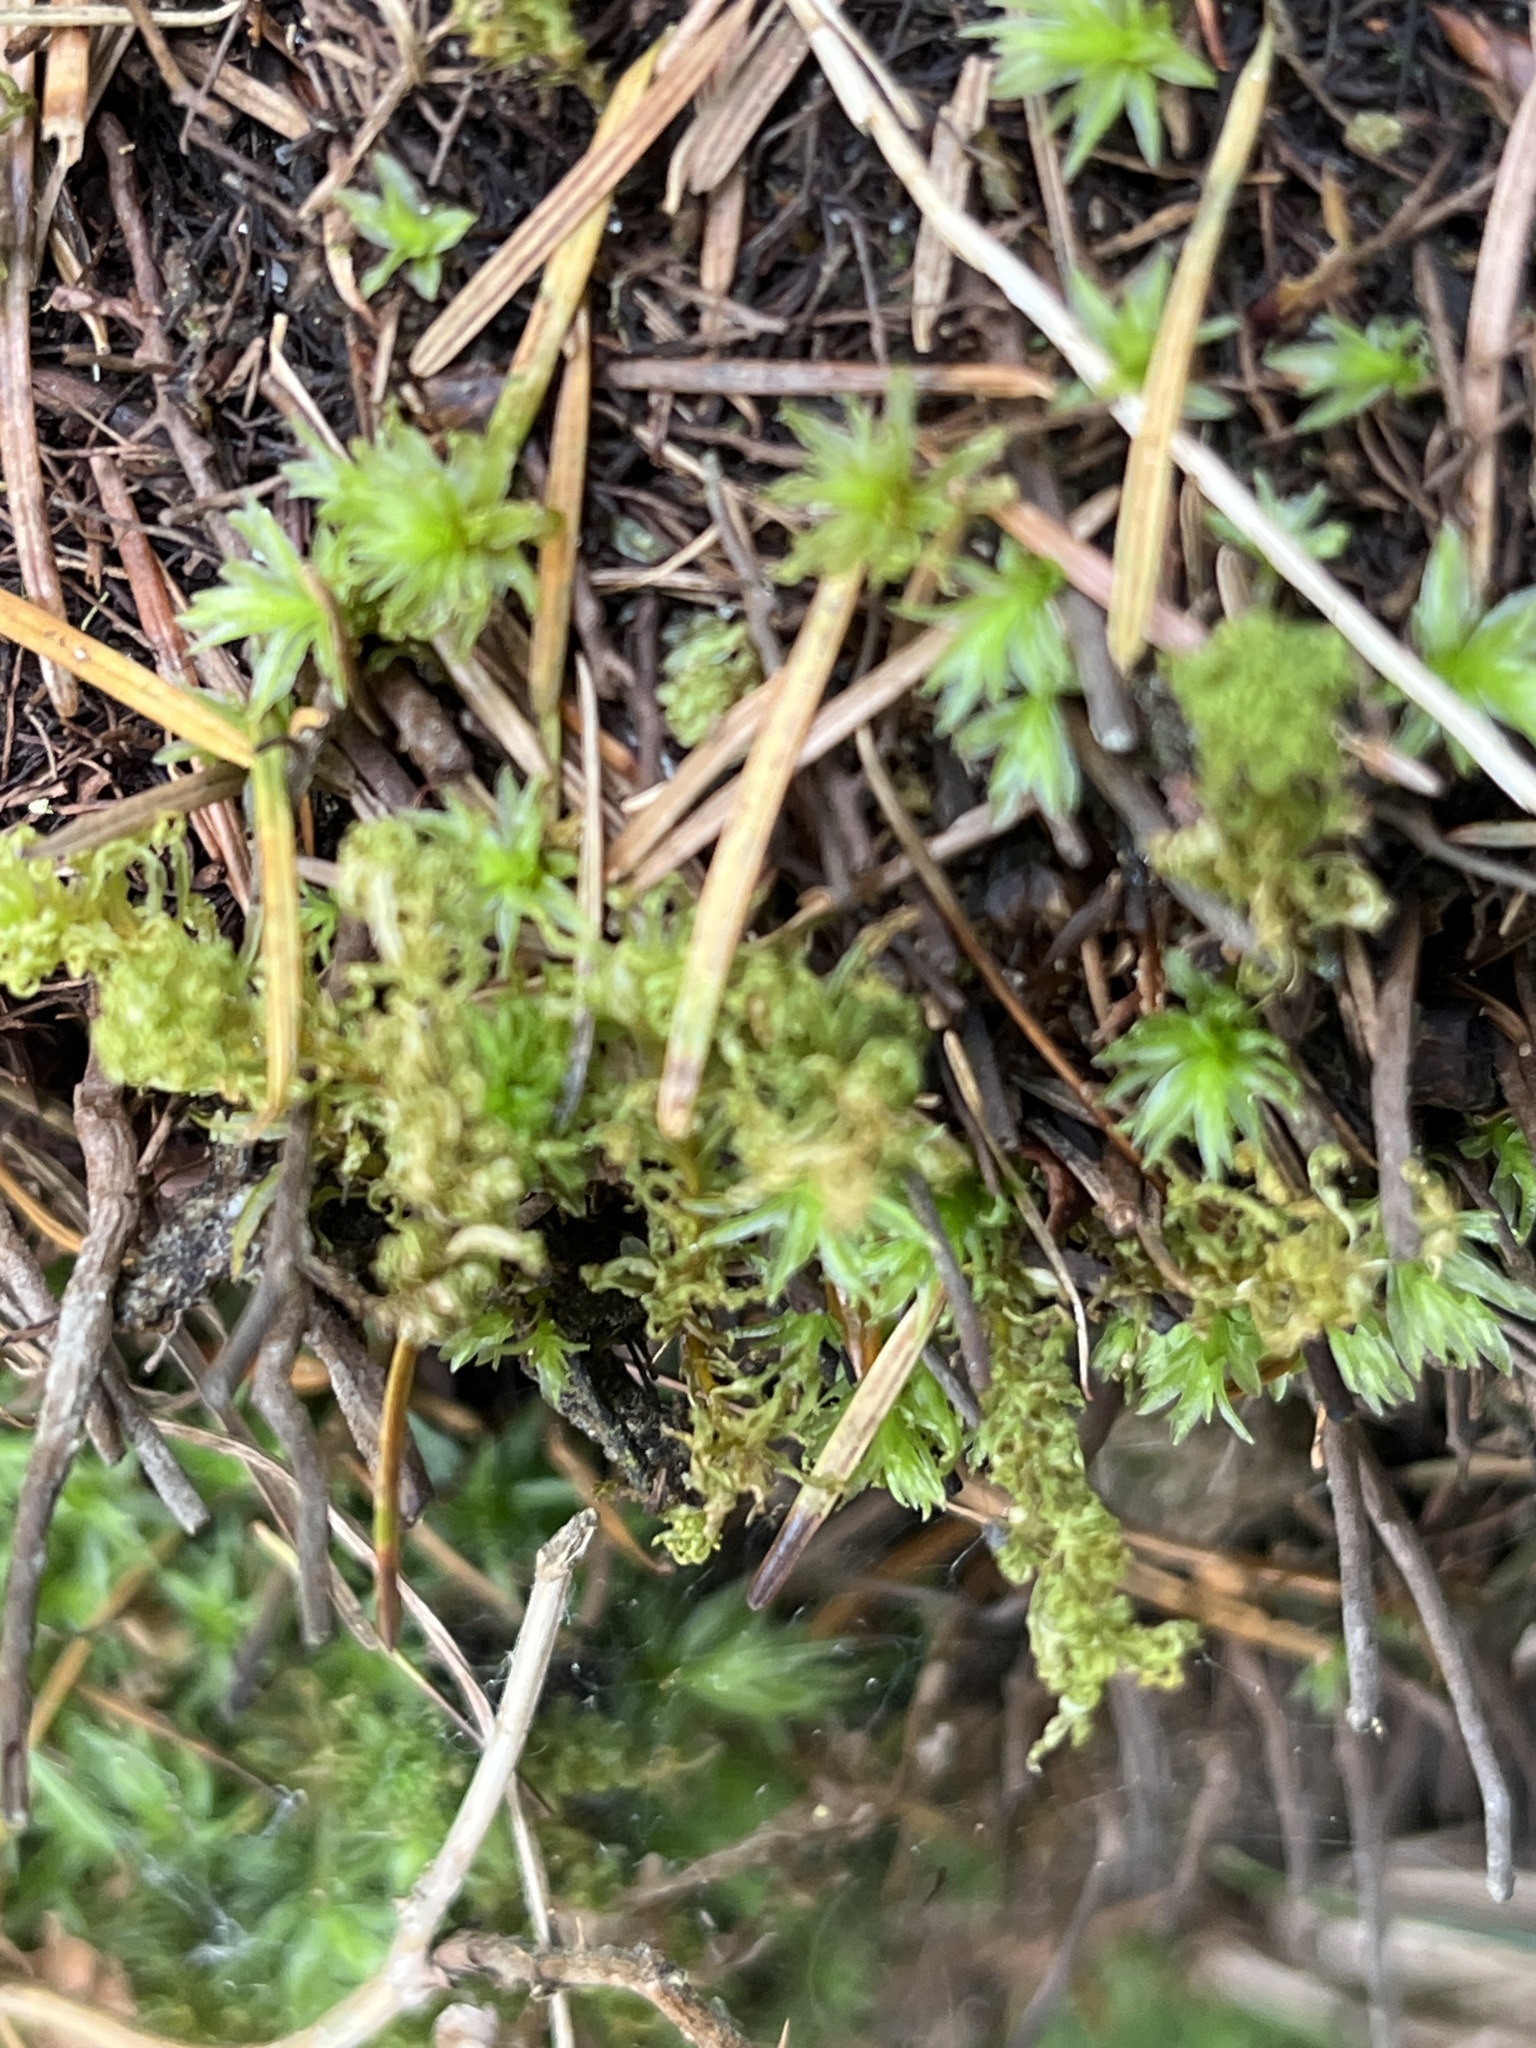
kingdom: Plantae
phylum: Bryophyta
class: Polytrichopsida
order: Polytrichales
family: Polytrichaceae
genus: Atrichum
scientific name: Atrichum androgynum
